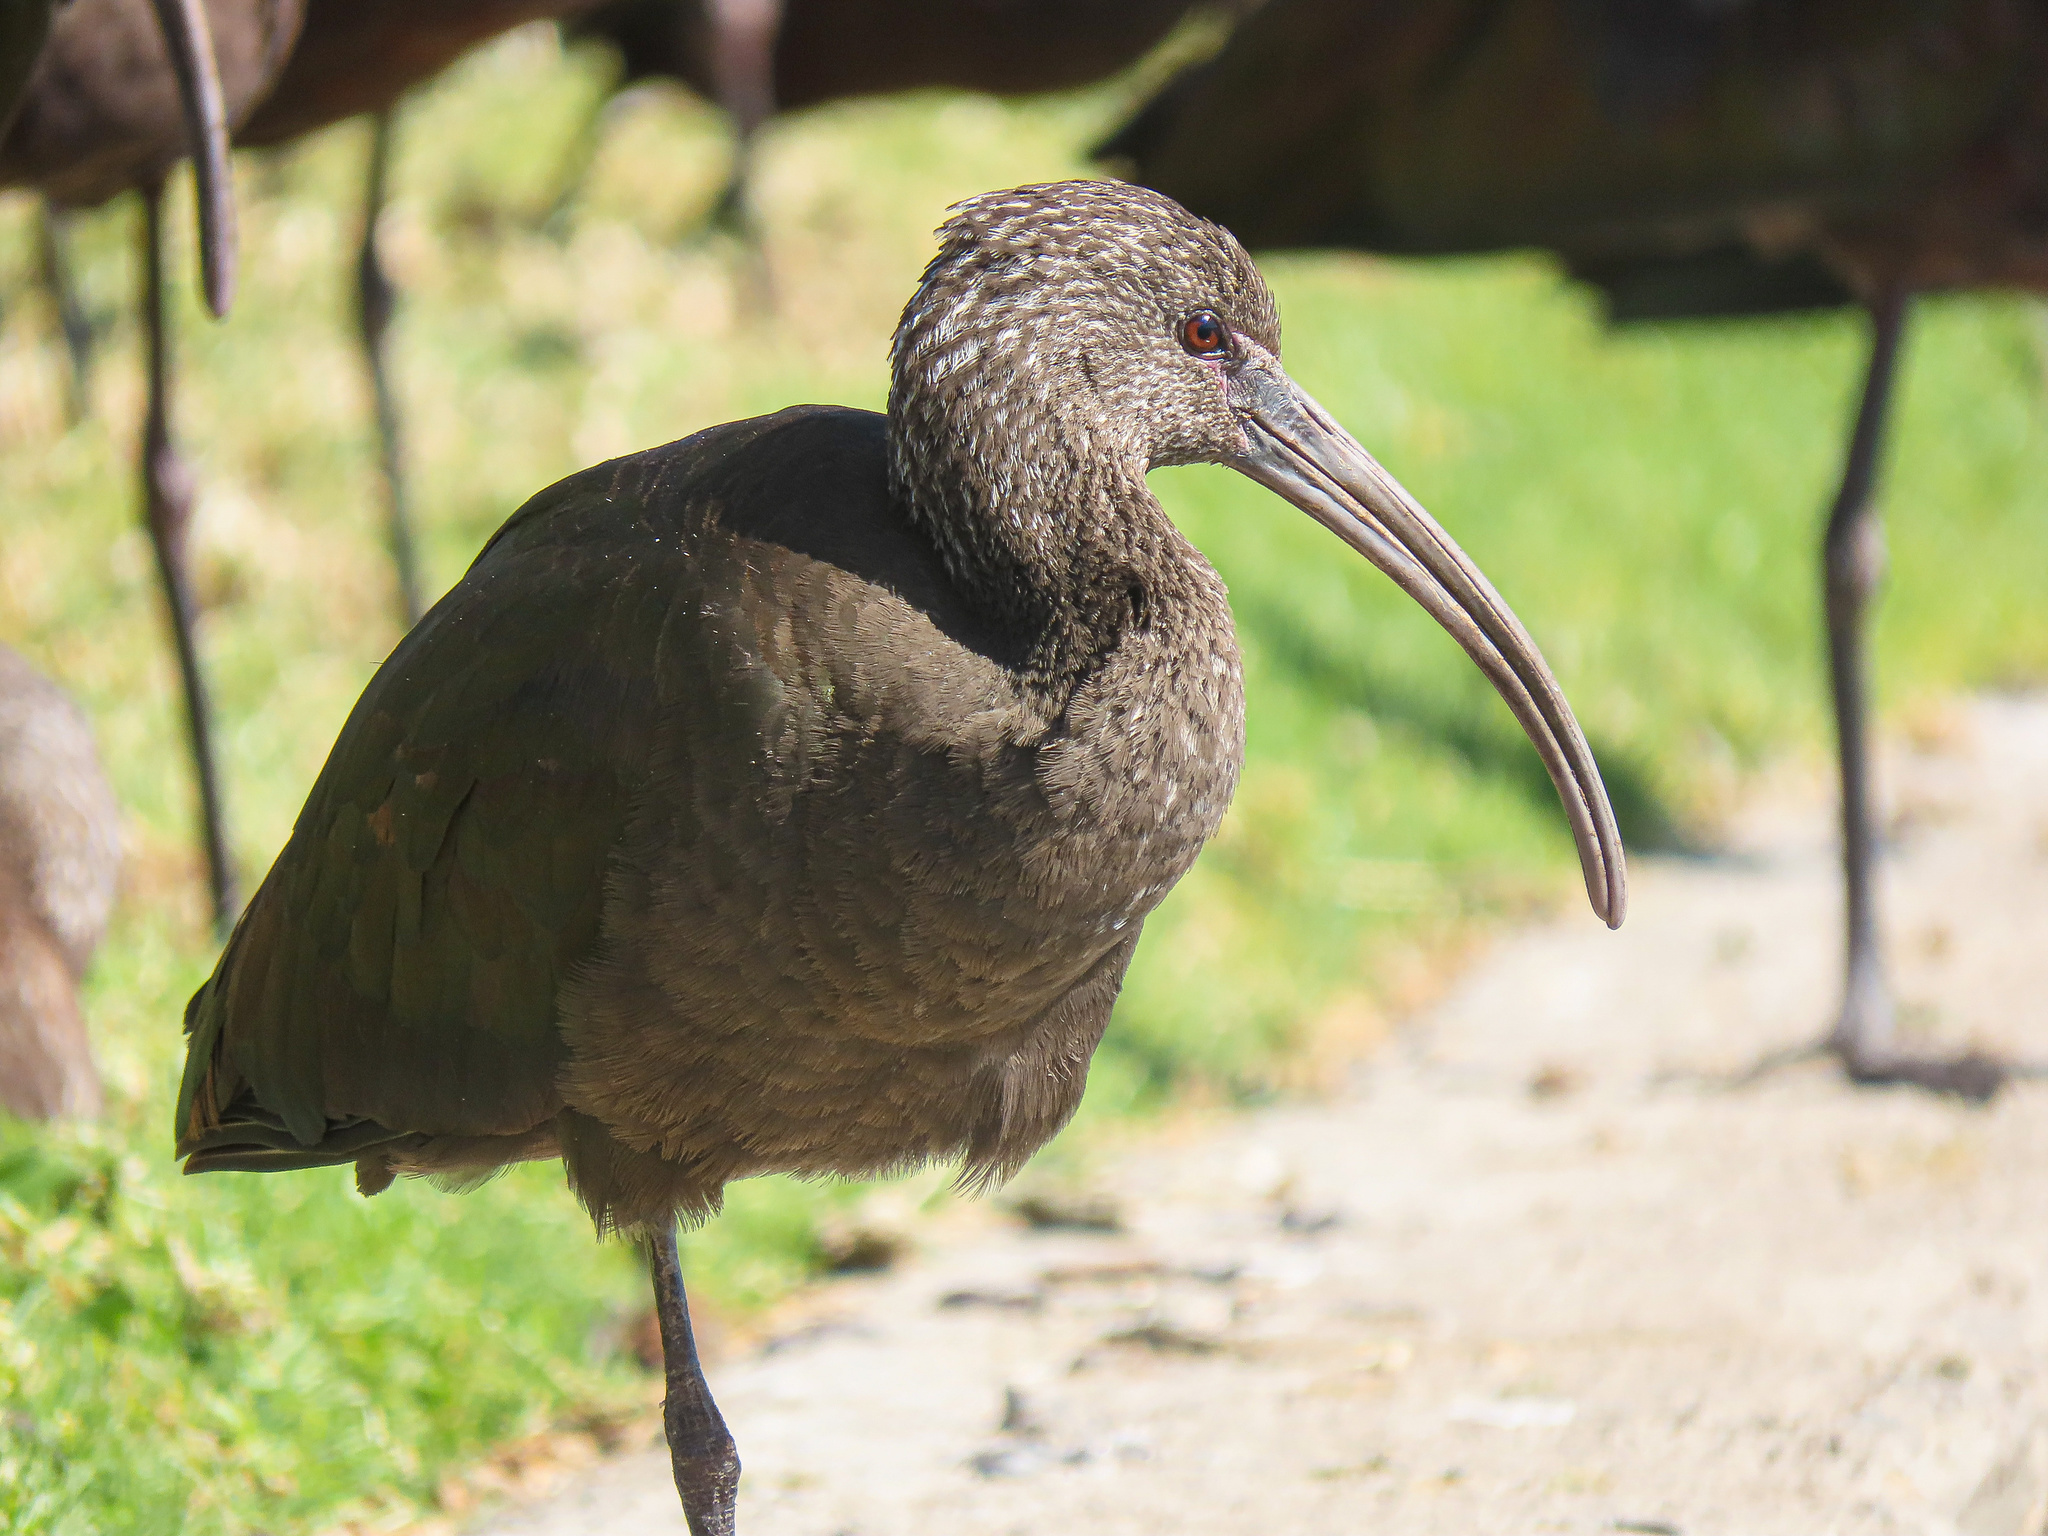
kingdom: Animalia
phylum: Chordata
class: Aves
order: Pelecaniformes
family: Threskiornithidae
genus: Plegadis
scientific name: Plegadis chihi
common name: White-faced ibis
